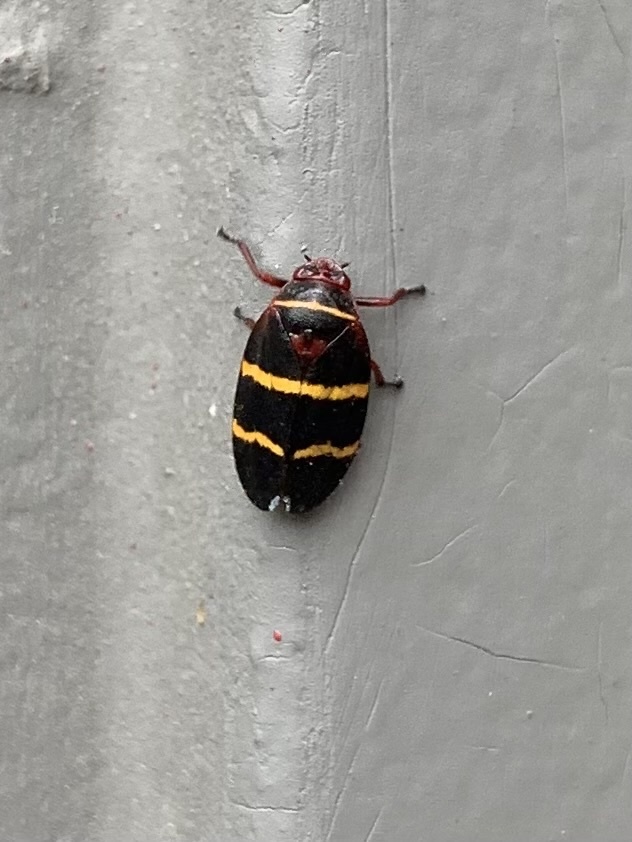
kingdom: Animalia
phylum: Arthropoda
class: Insecta
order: Hemiptera
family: Cercopidae
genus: Prosapia
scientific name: Prosapia bicincta
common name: Twolined spittlebug
